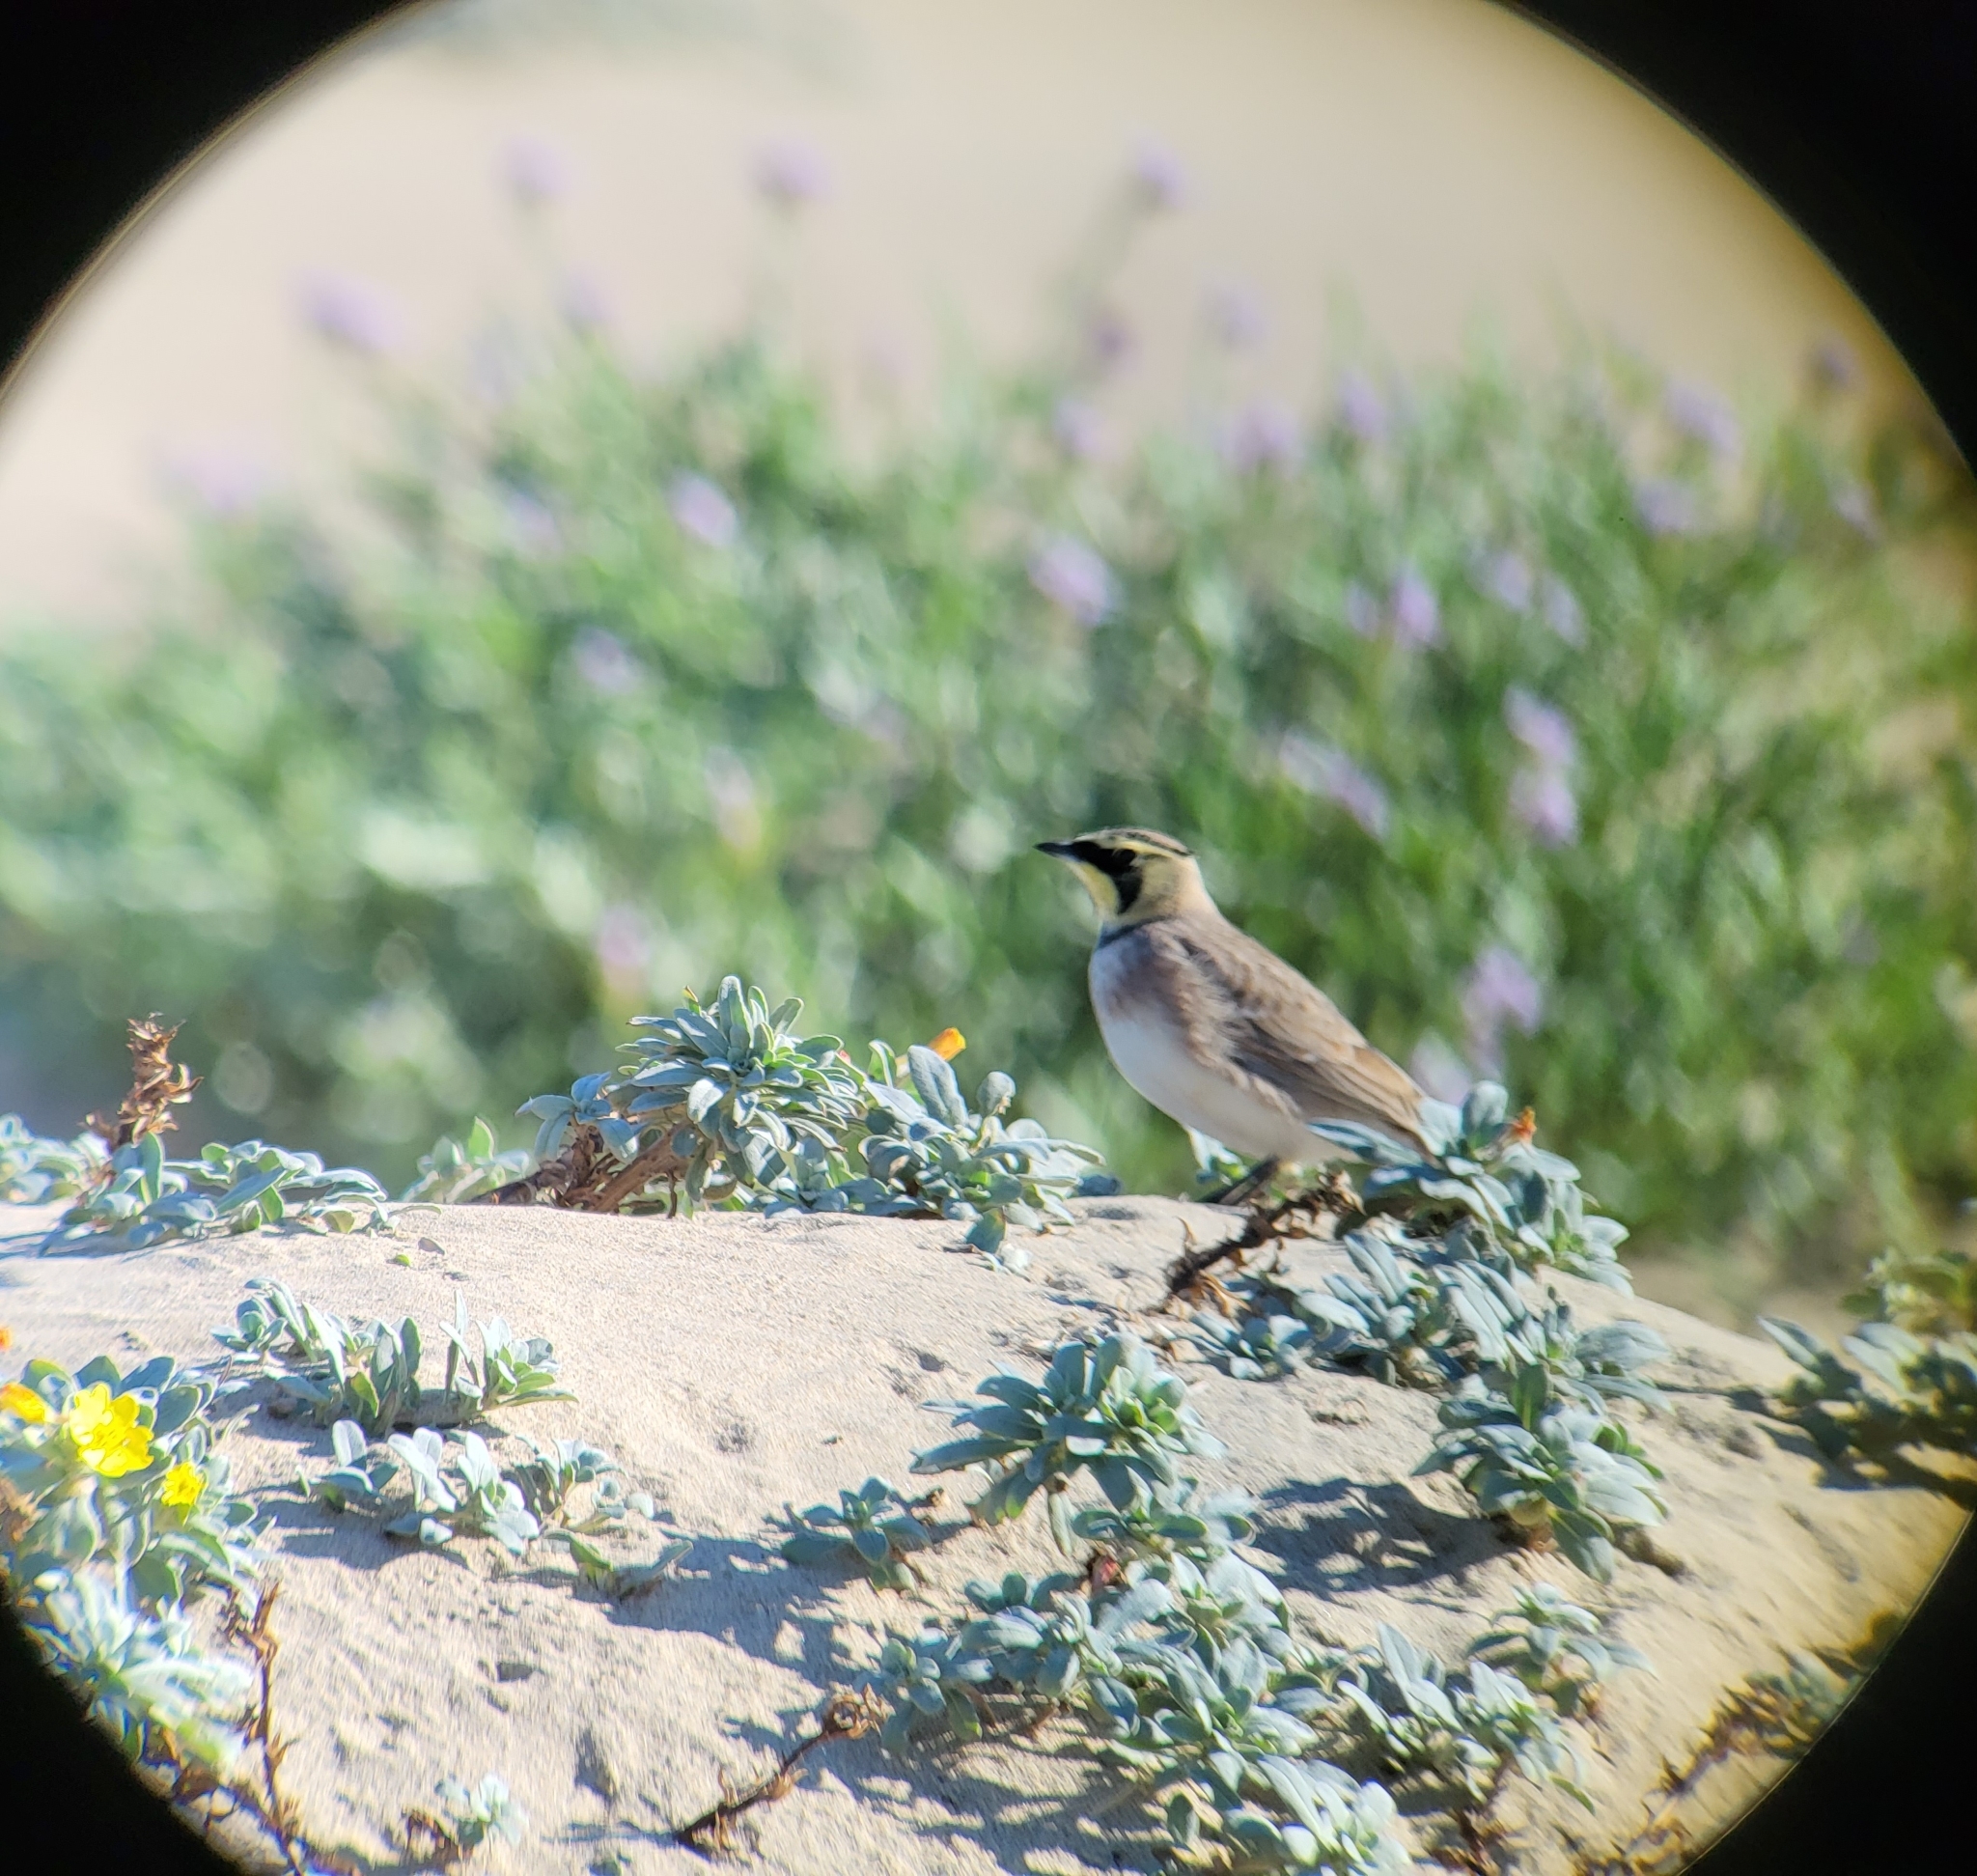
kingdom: Animalia
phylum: Chordata
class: Aves
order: Passeriformes
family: Alaudidae
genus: Eremophila
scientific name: Eremophila alpestris
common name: Horned lark
